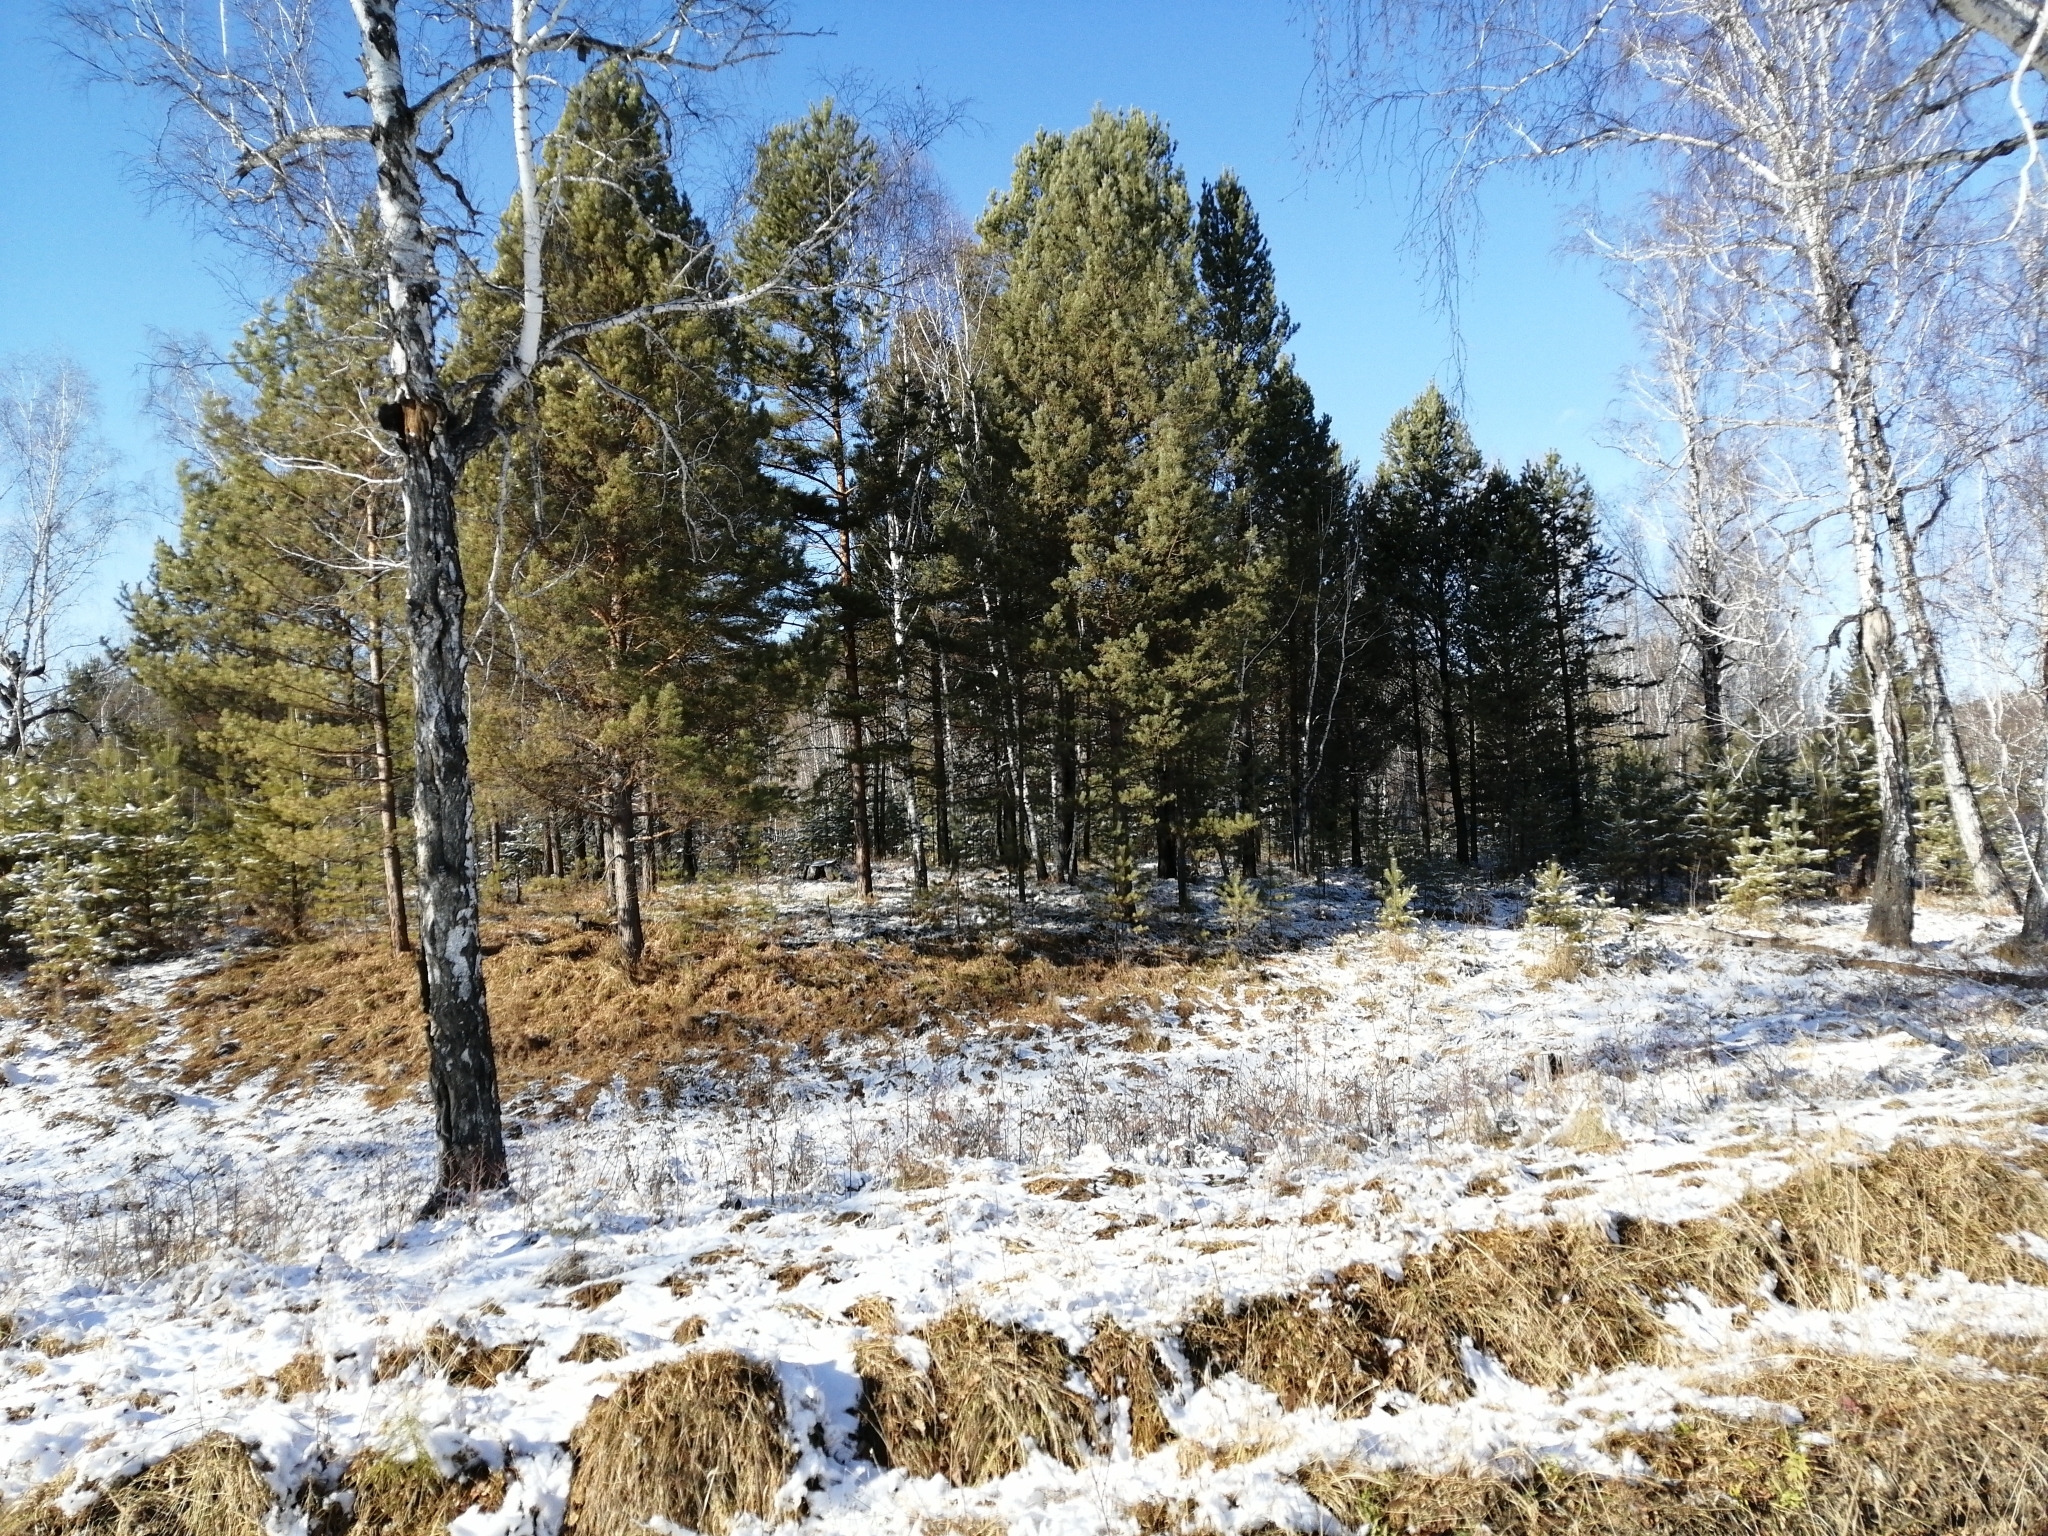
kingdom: Plantae
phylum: Tracheophyta
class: Pinopsida
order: Pinales
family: Pinaceae
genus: Pinus
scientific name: Pinus sylvestris
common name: Scots pine
